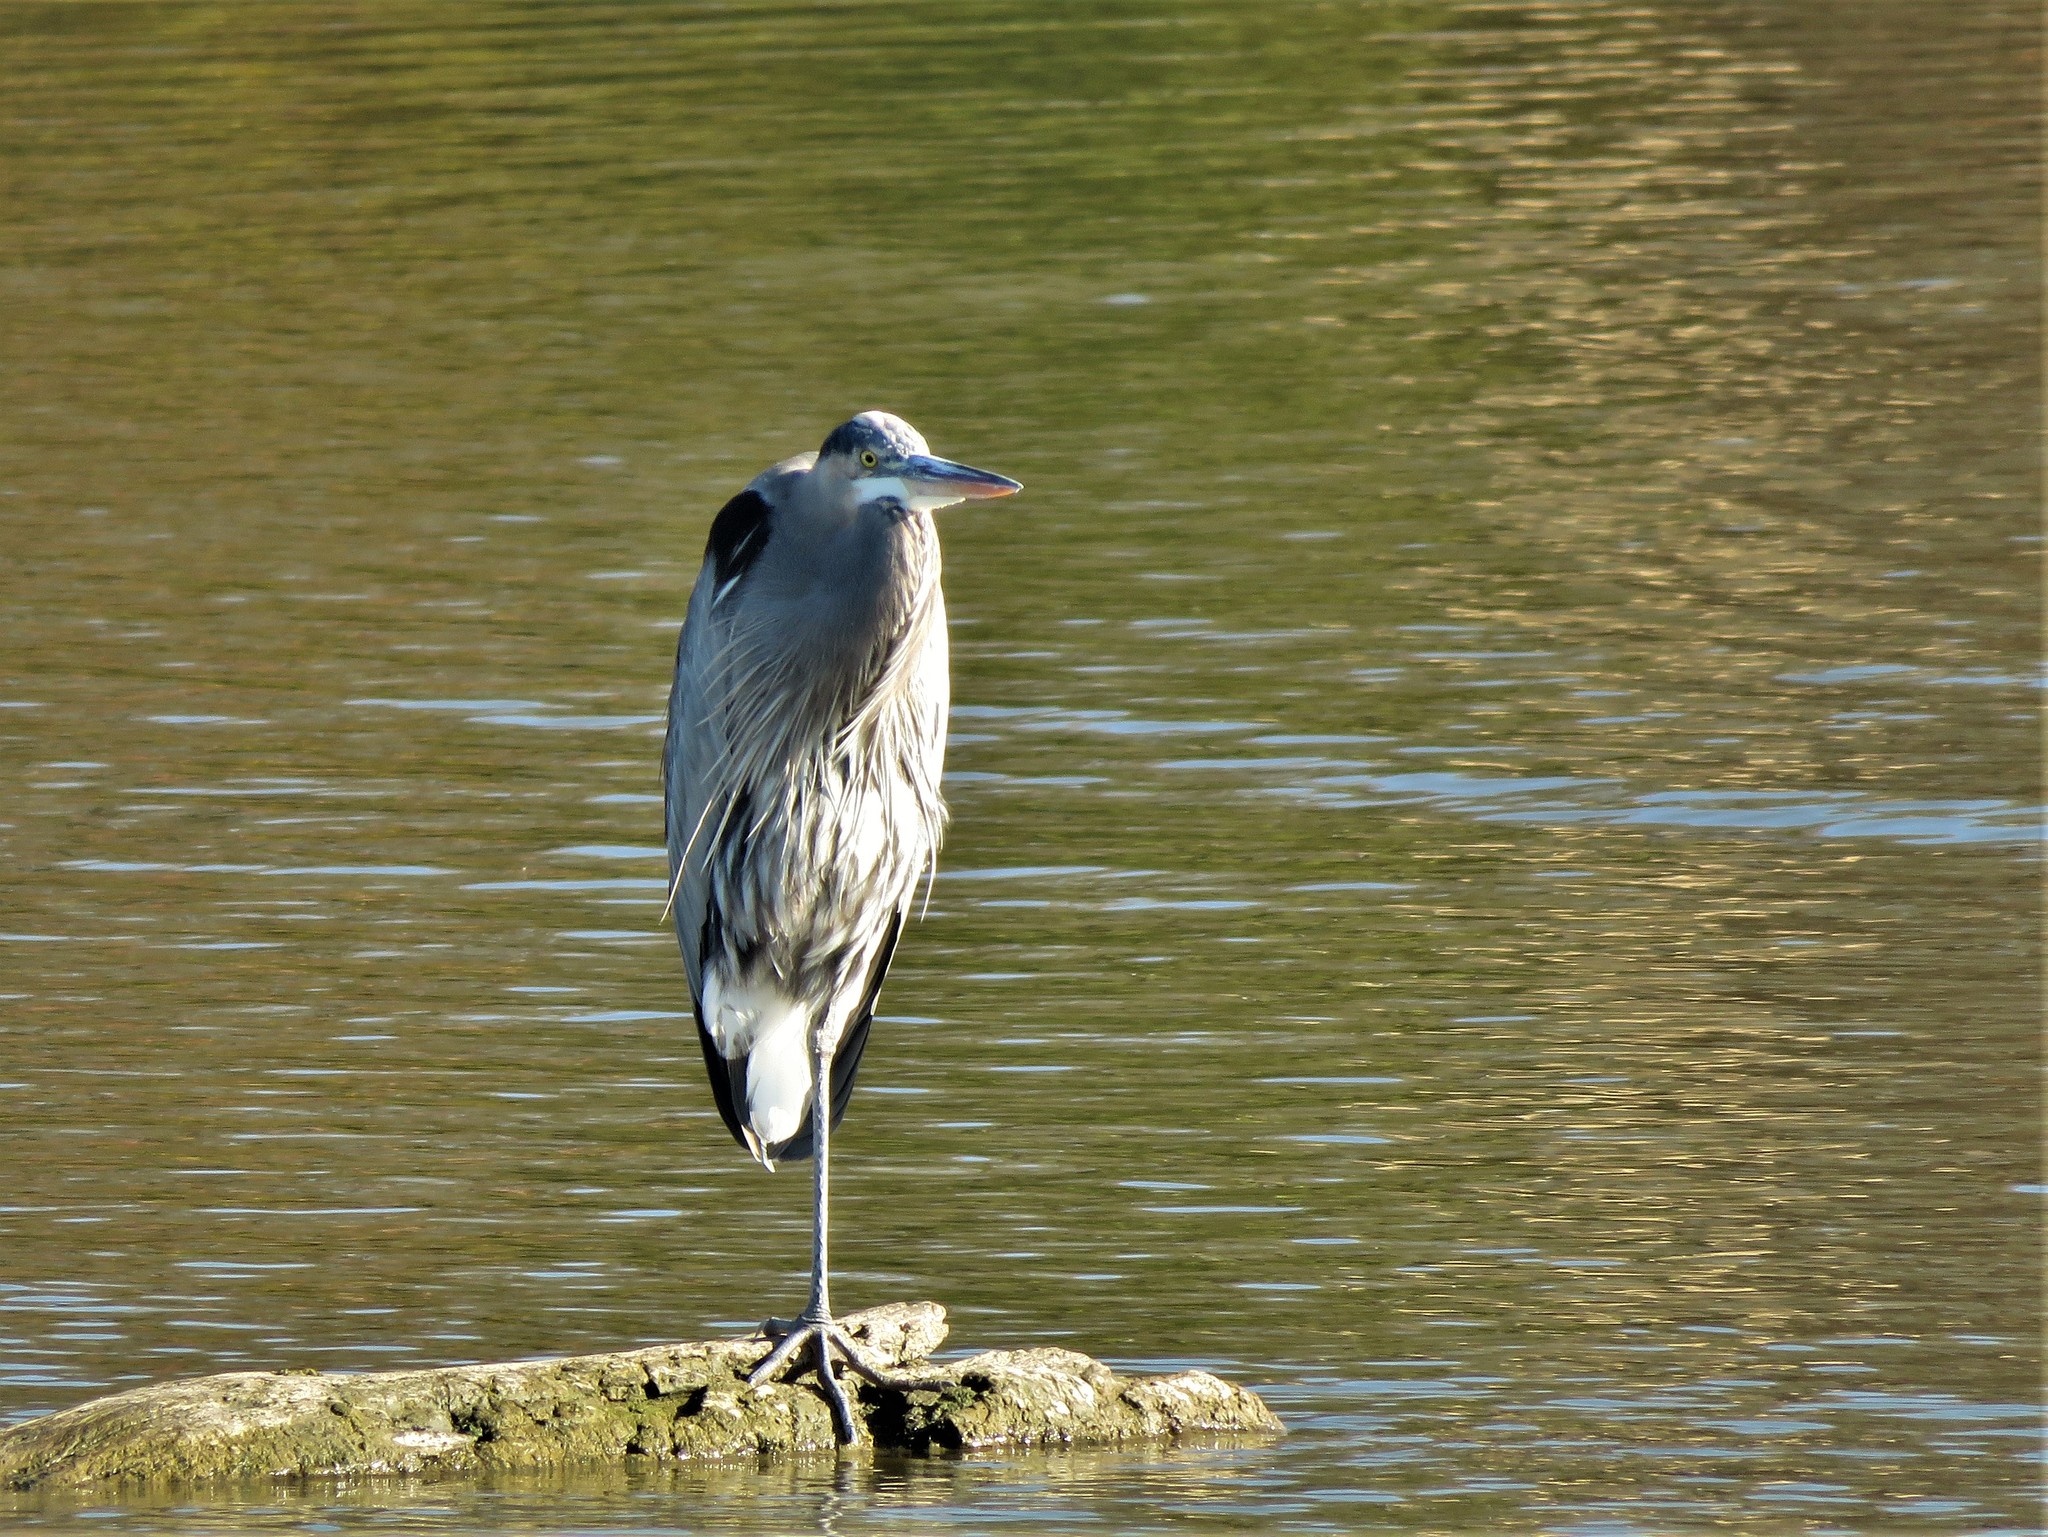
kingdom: Animalia
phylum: Chordata
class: Aves
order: Pelecaniformes
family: Ardeidae
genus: Ardea
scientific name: Ardea herodias
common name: Great blue heron
